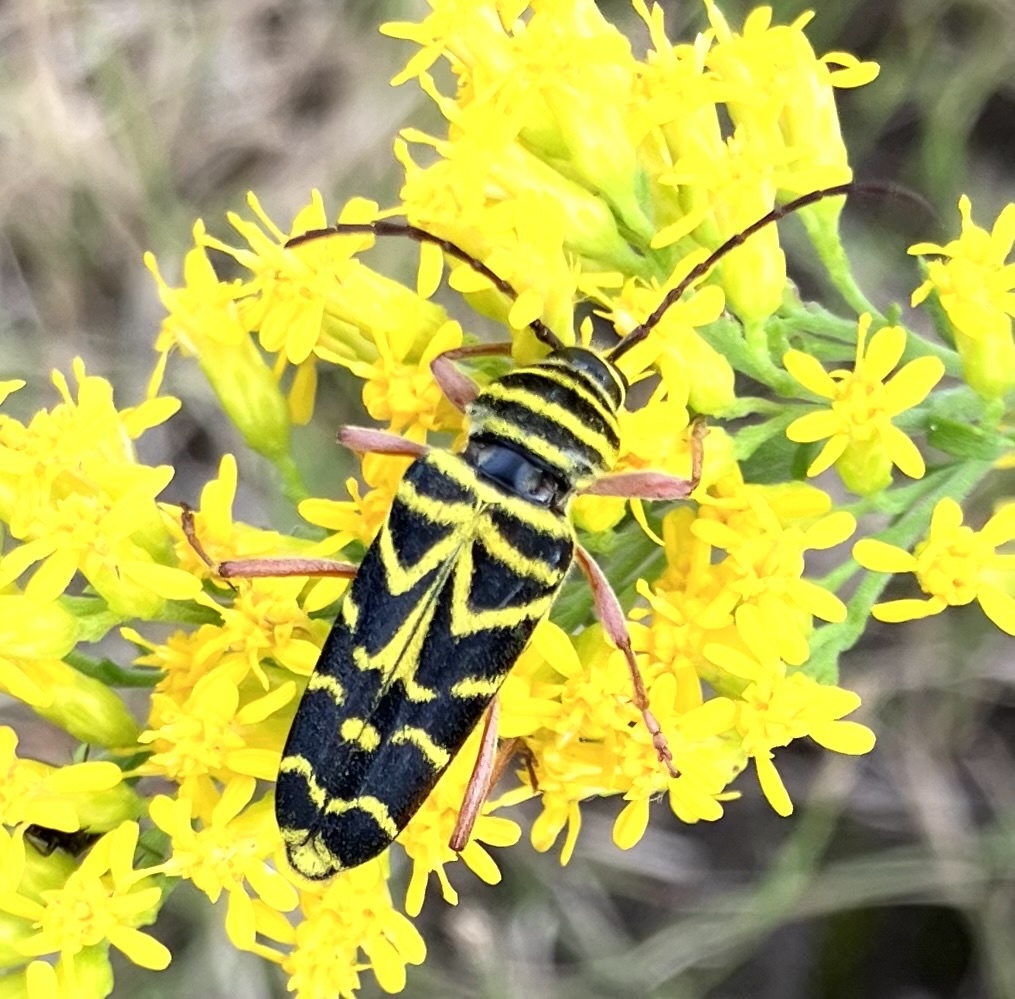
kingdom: Animalia
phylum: Arthropoda
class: Insecta
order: Coleoptera
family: Cerambycidae
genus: Megacyllene
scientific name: Megacyllene robiniae
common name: Locust borer
